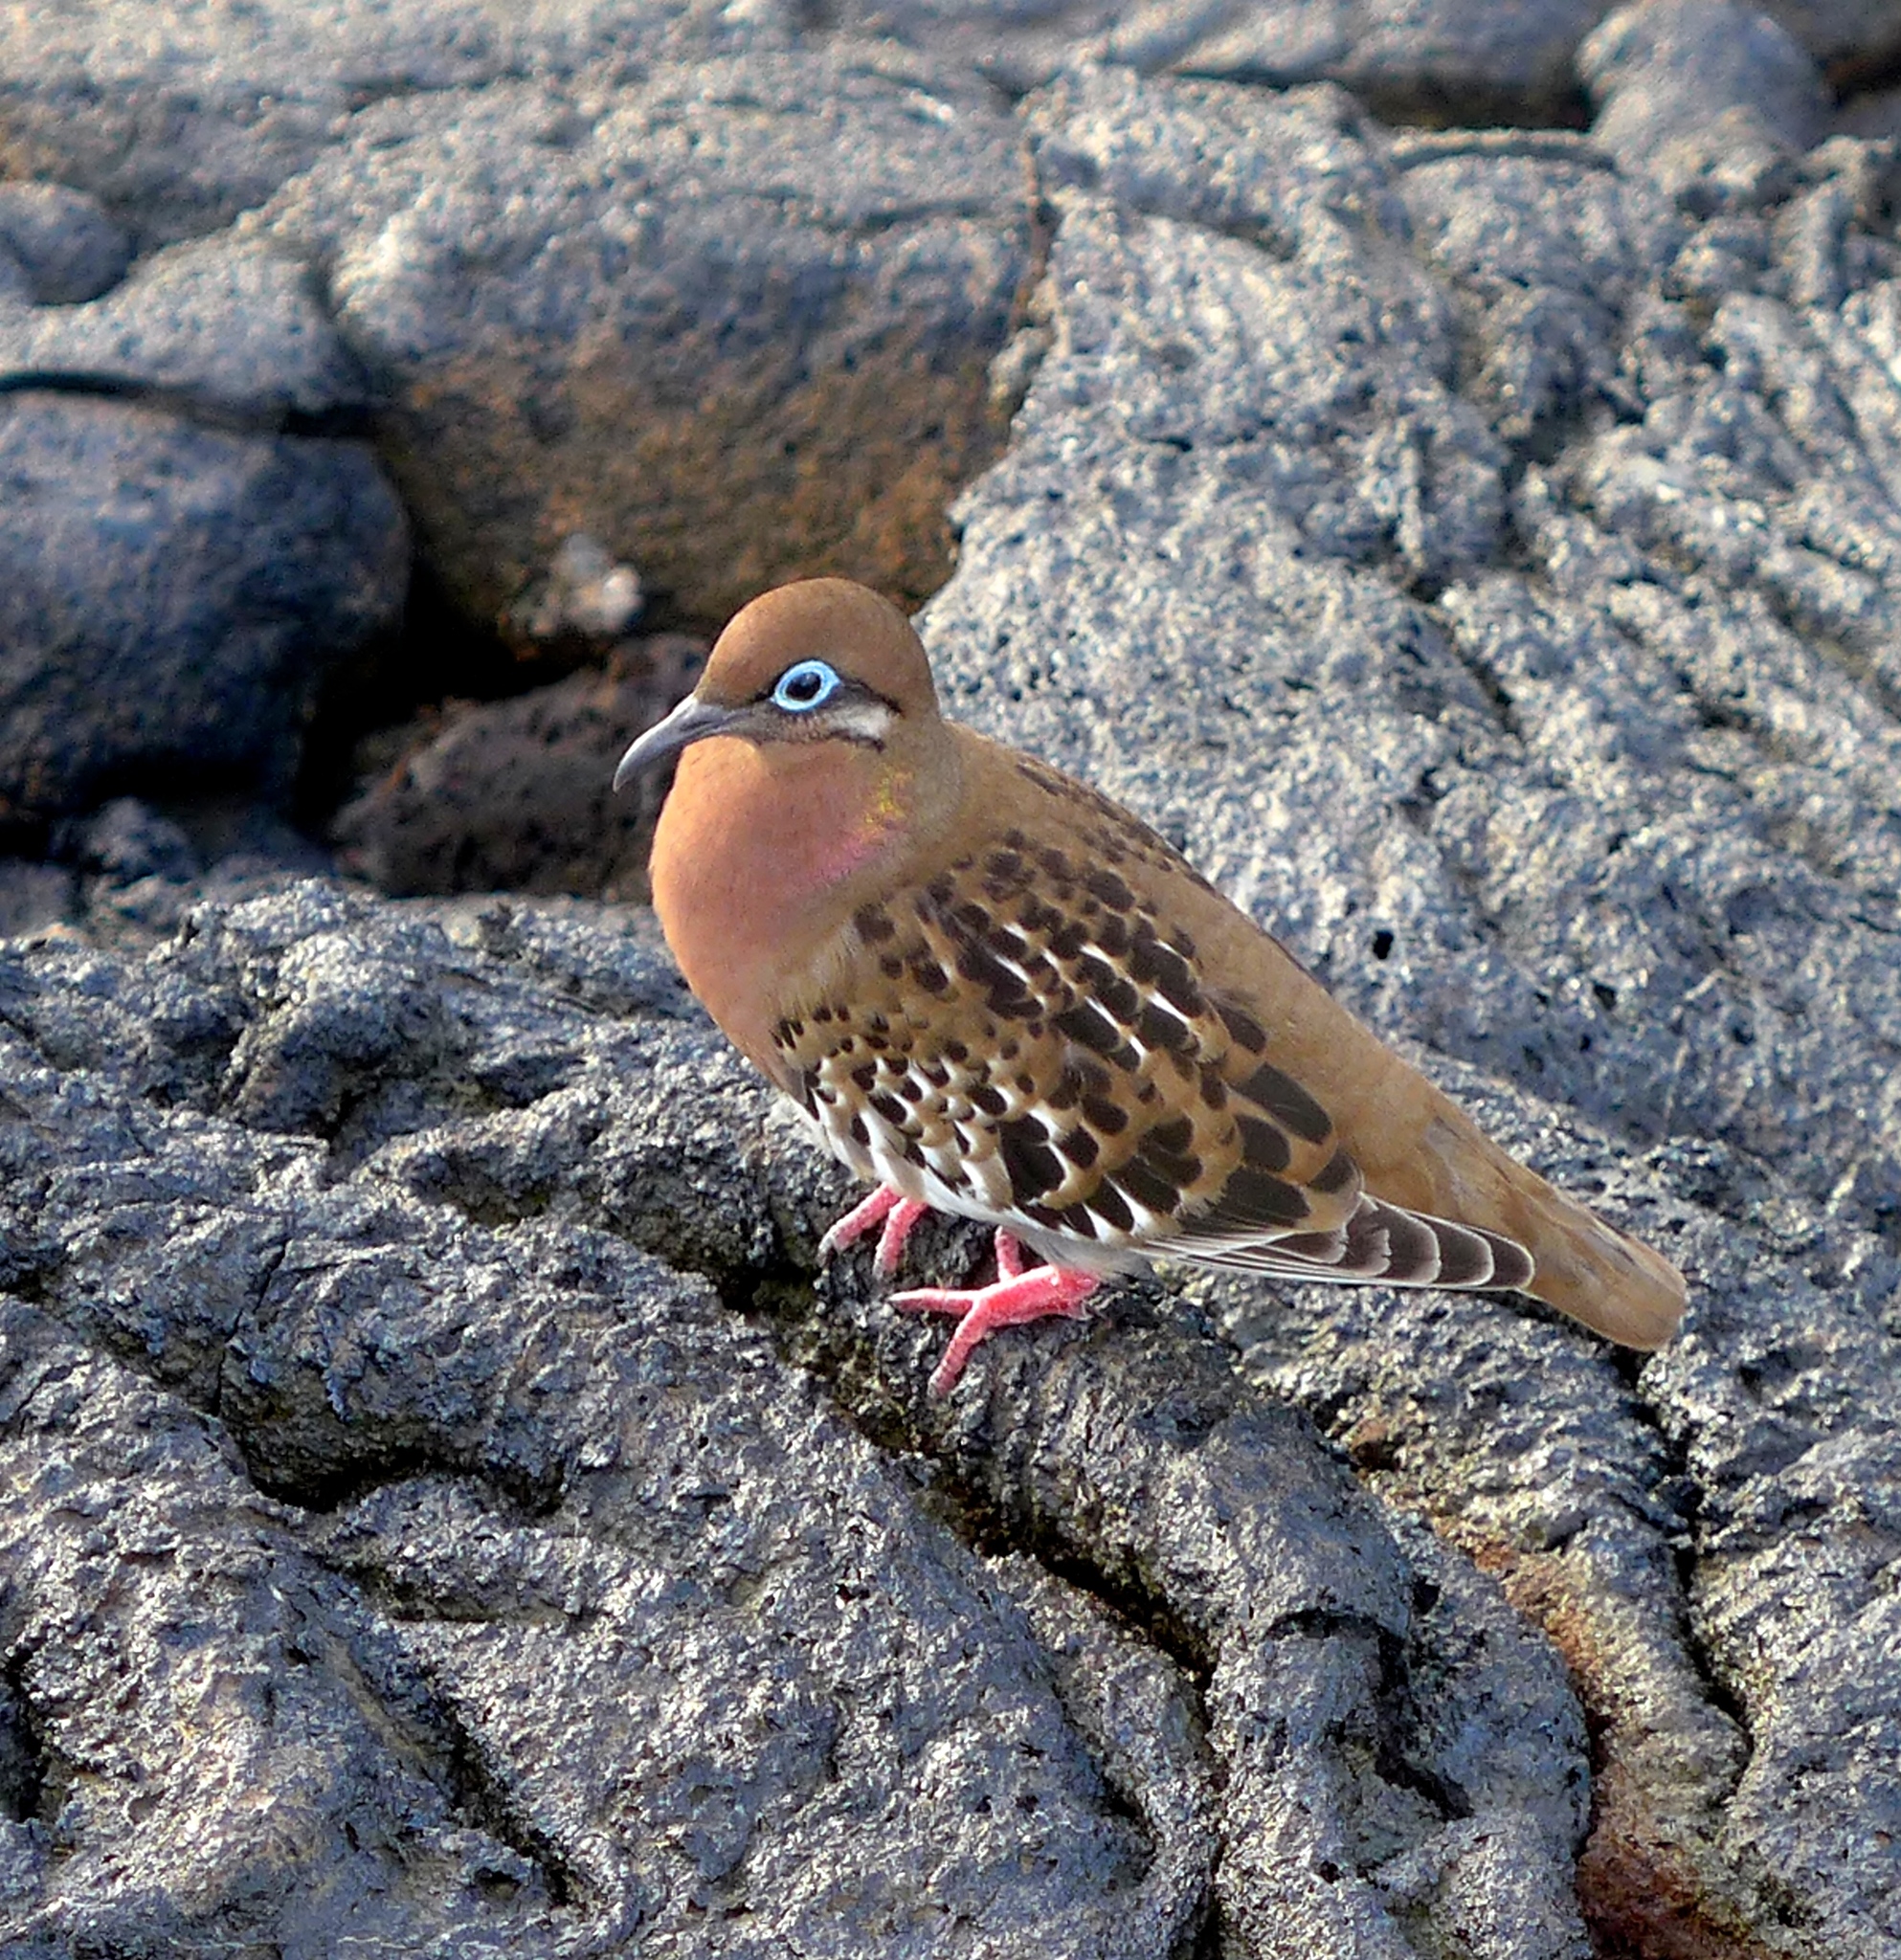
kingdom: Animalia
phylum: Chordata
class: Aves
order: Columbiformes
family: Columbidae
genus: Zenaida
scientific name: Zenaida galapagoensis
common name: Galapagos dove
